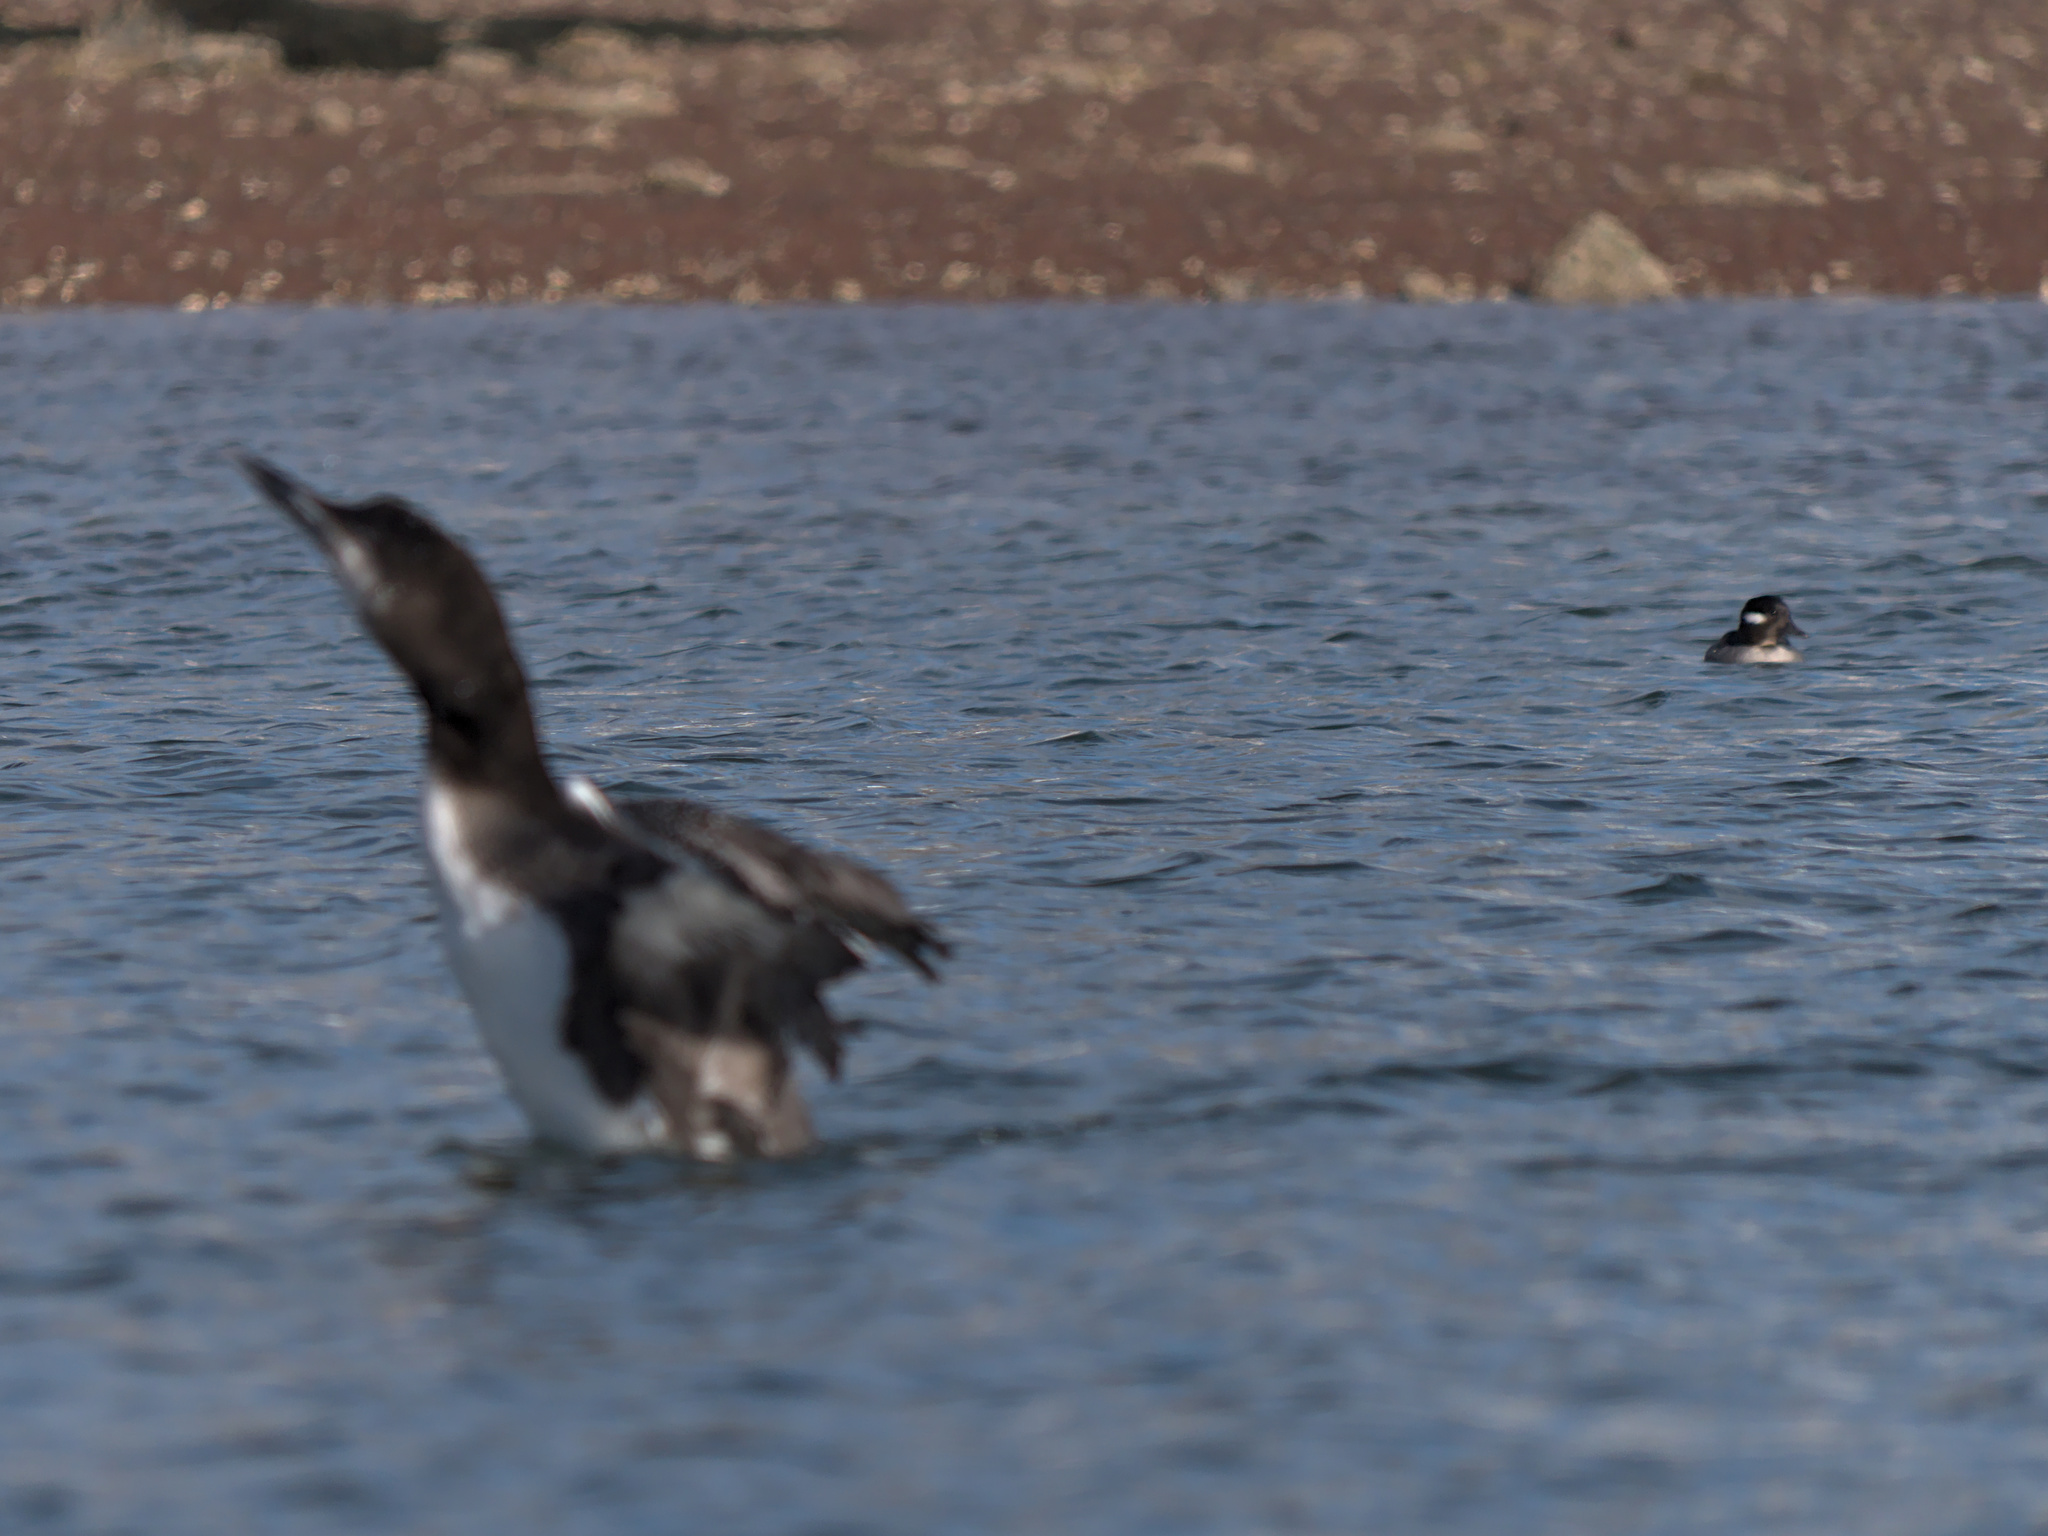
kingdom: Animalia
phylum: Chordata
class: Aves
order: Anseriformes
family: Anatidae
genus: Bucephala
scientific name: Bucephala albeola
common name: Bufflehead
